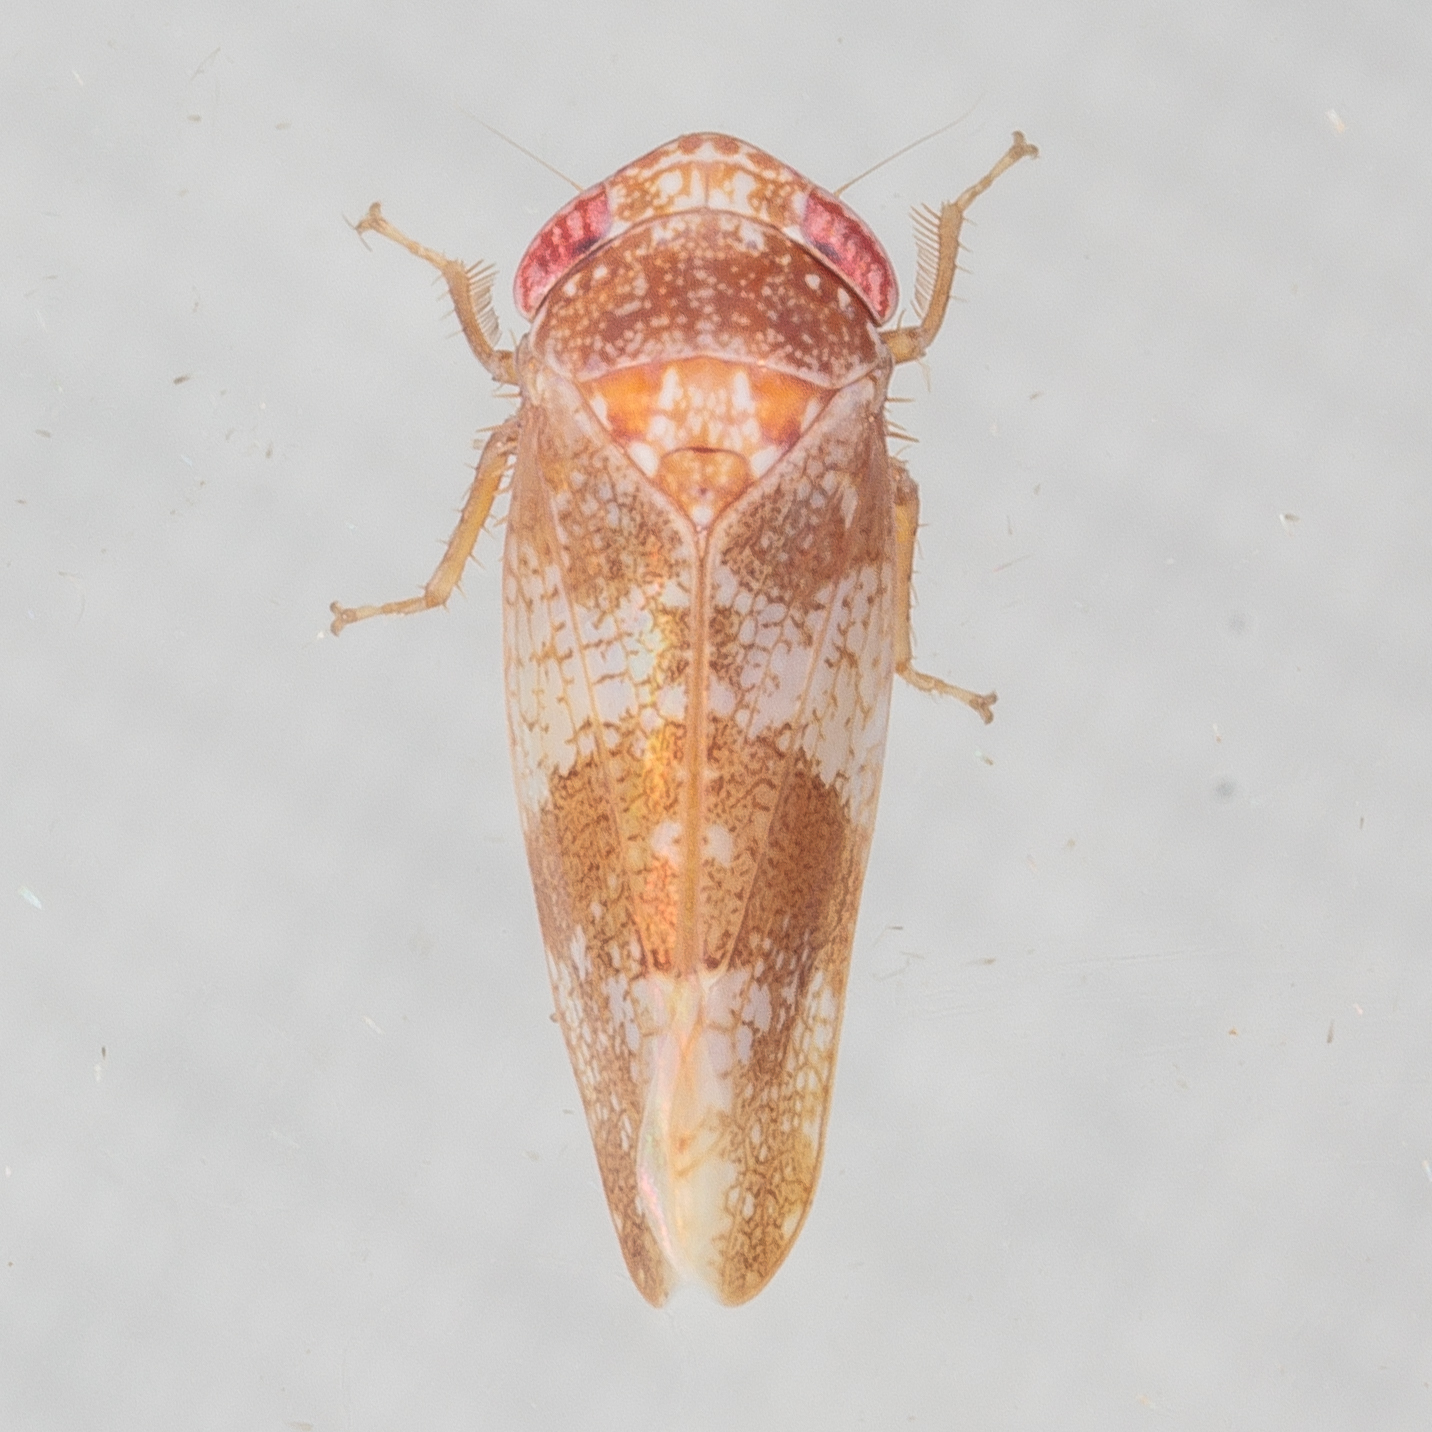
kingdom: Animalia
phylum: Arthropoda
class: Insecta
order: Hemiptera
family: Cicadellidae
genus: Norvellina
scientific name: Norvellina helenae
